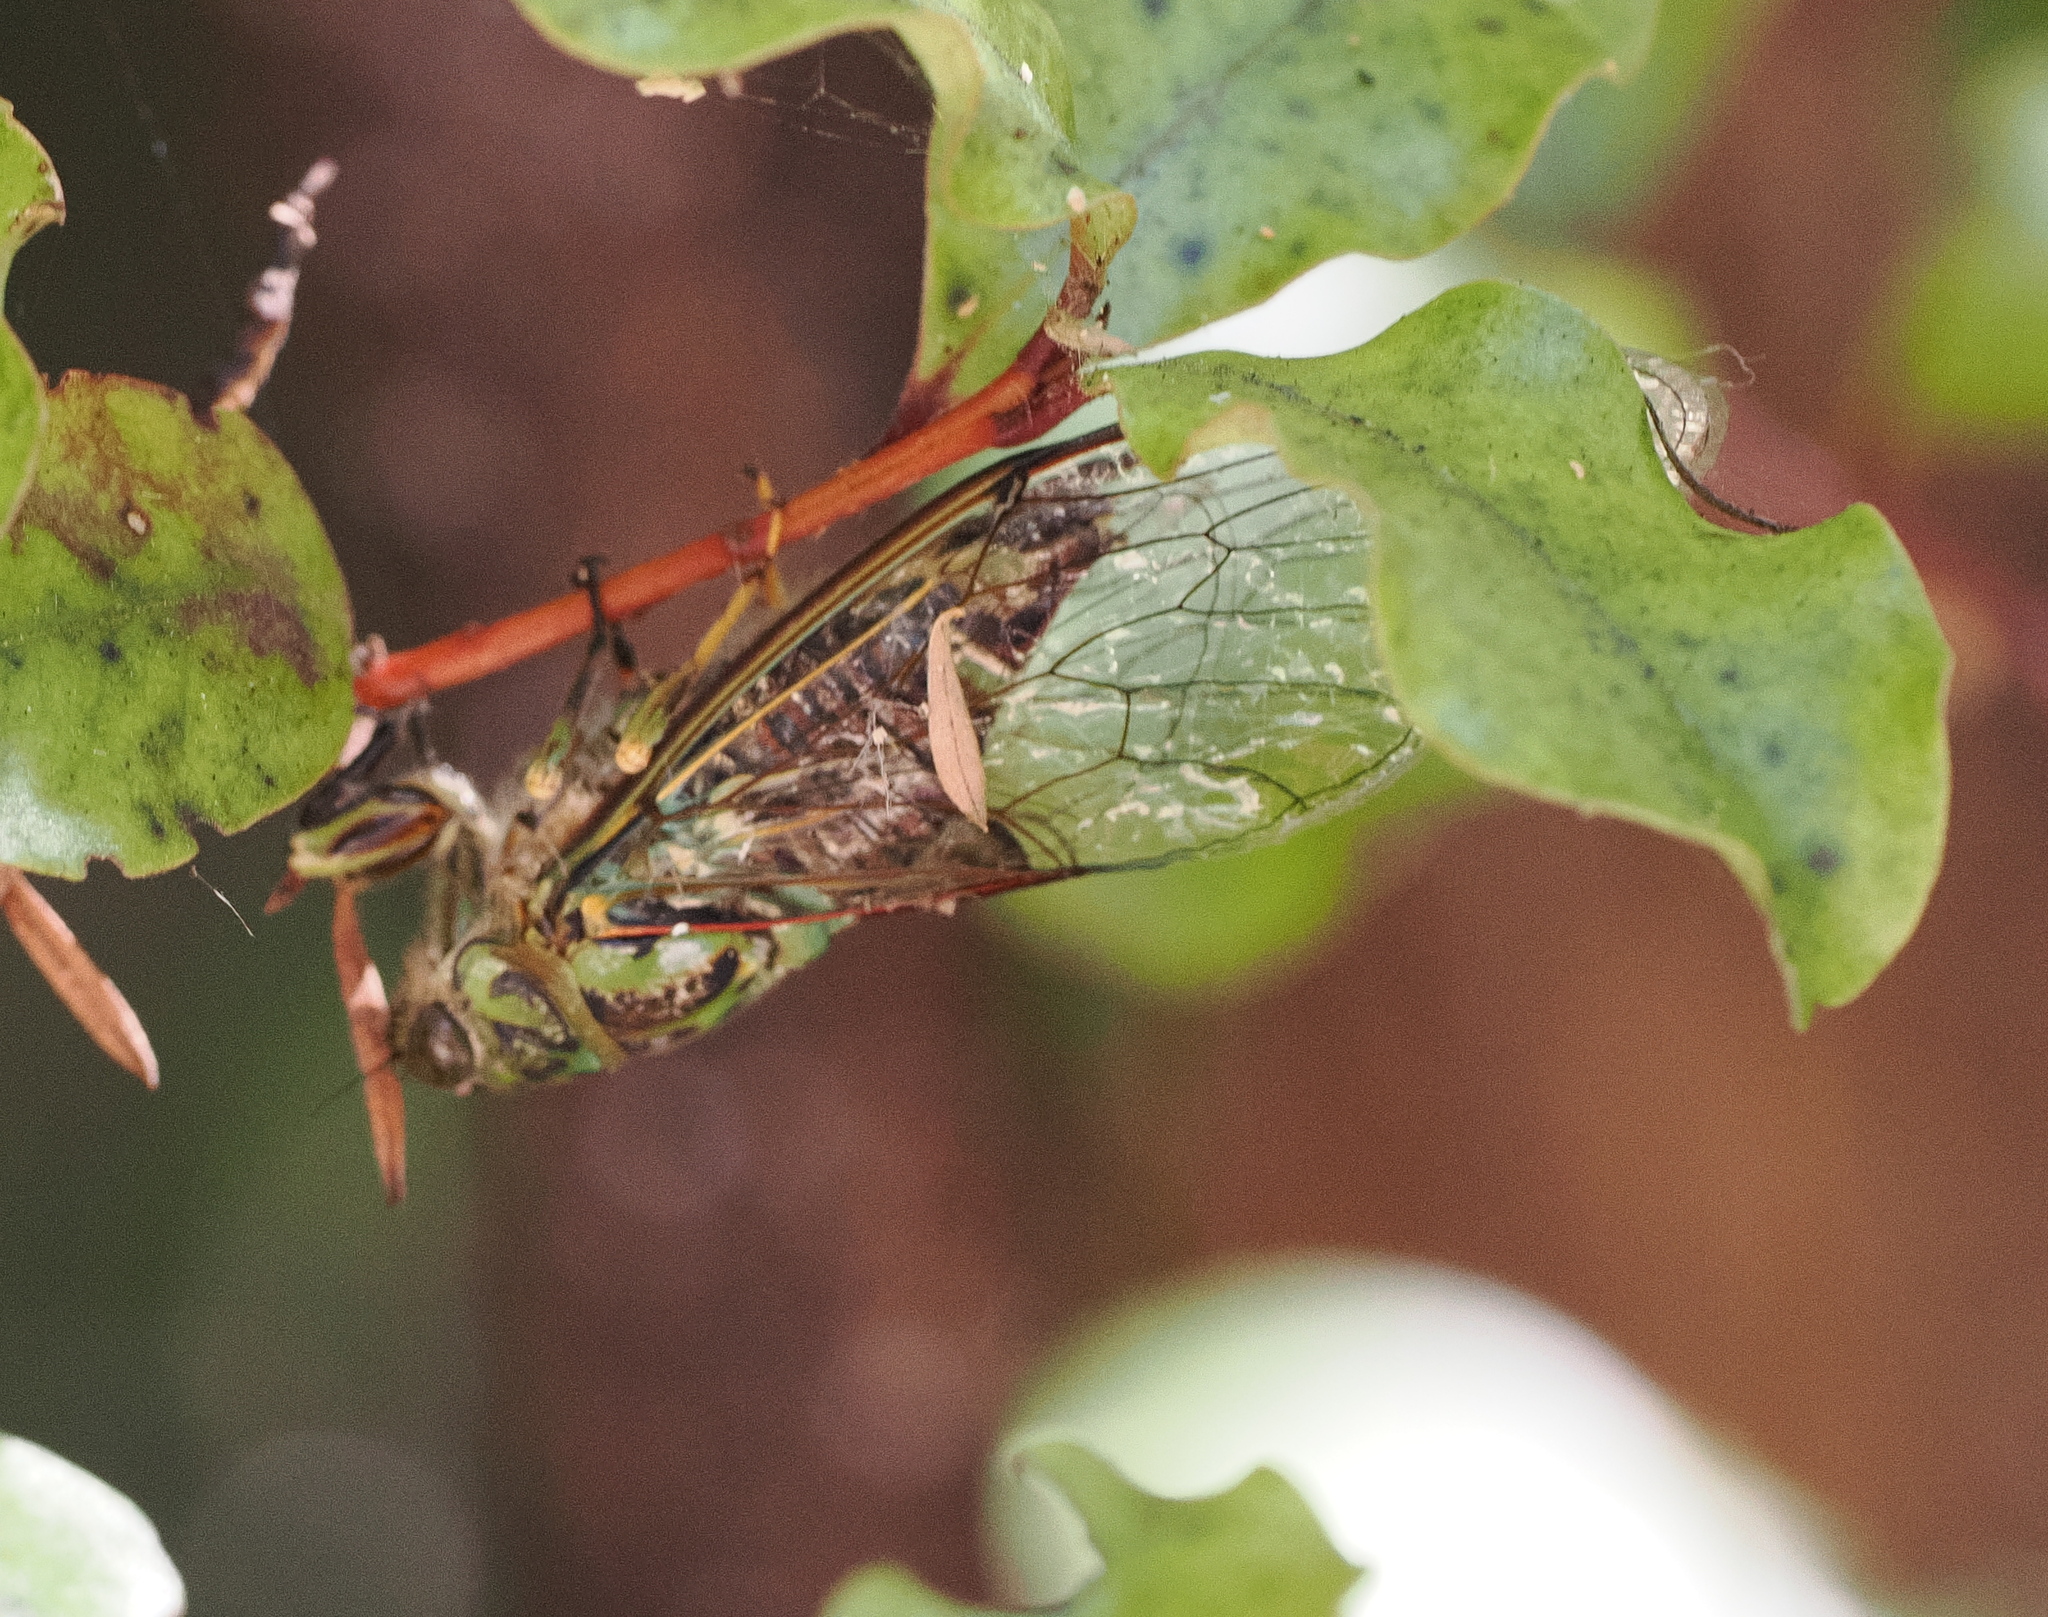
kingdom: Animalia
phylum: Arthropoda
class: Insecta
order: Hemiptera
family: Cicadidae
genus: Amphipsalta
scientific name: Amphipsalta cingulata
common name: Clapping cicada
